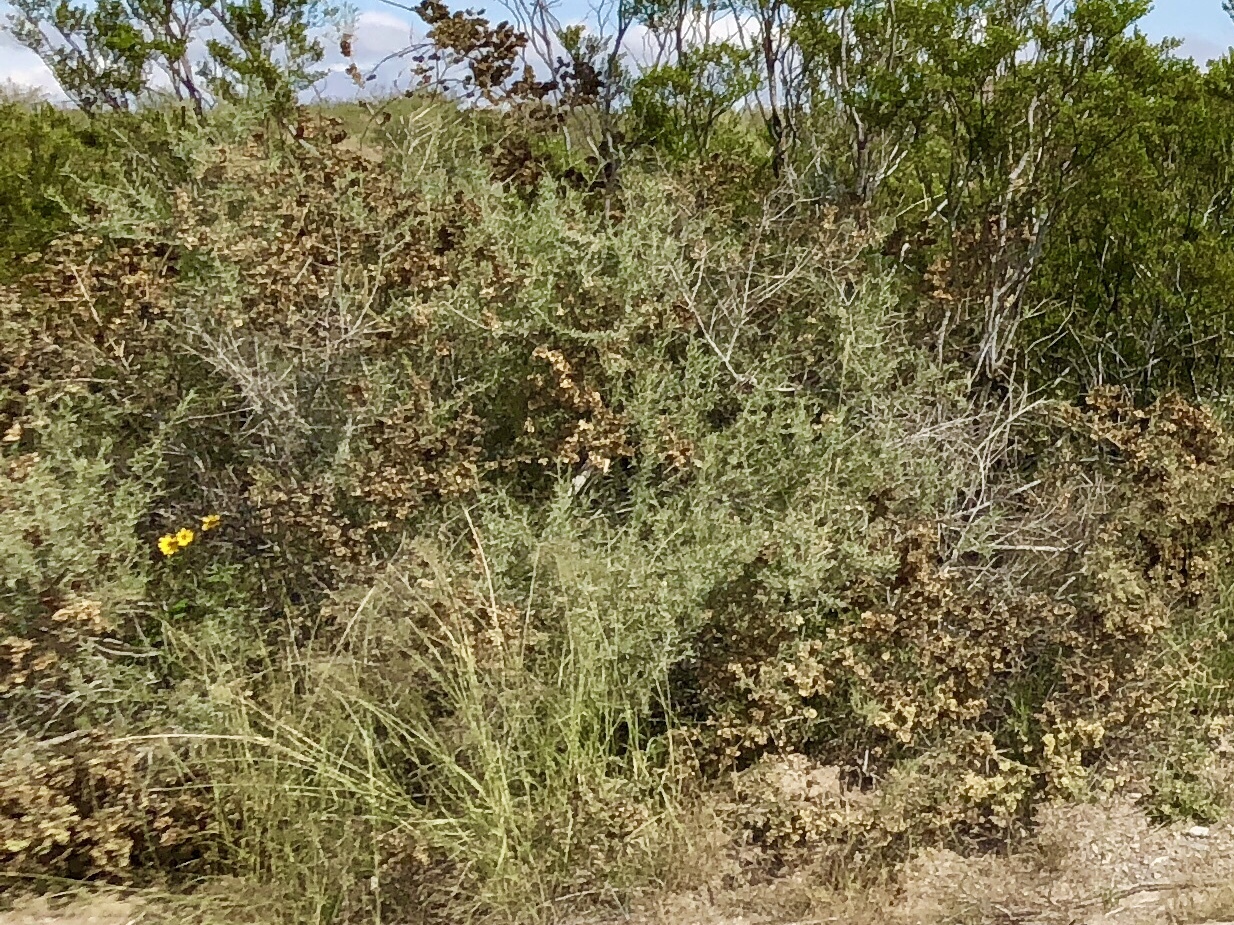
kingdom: Plantae
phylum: Tracheophyta
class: Magnoliopsida
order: Caryophyllales
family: Amaranthaceae
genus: Atriplex
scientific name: Atriplex canescens
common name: Four-wing saltbush
